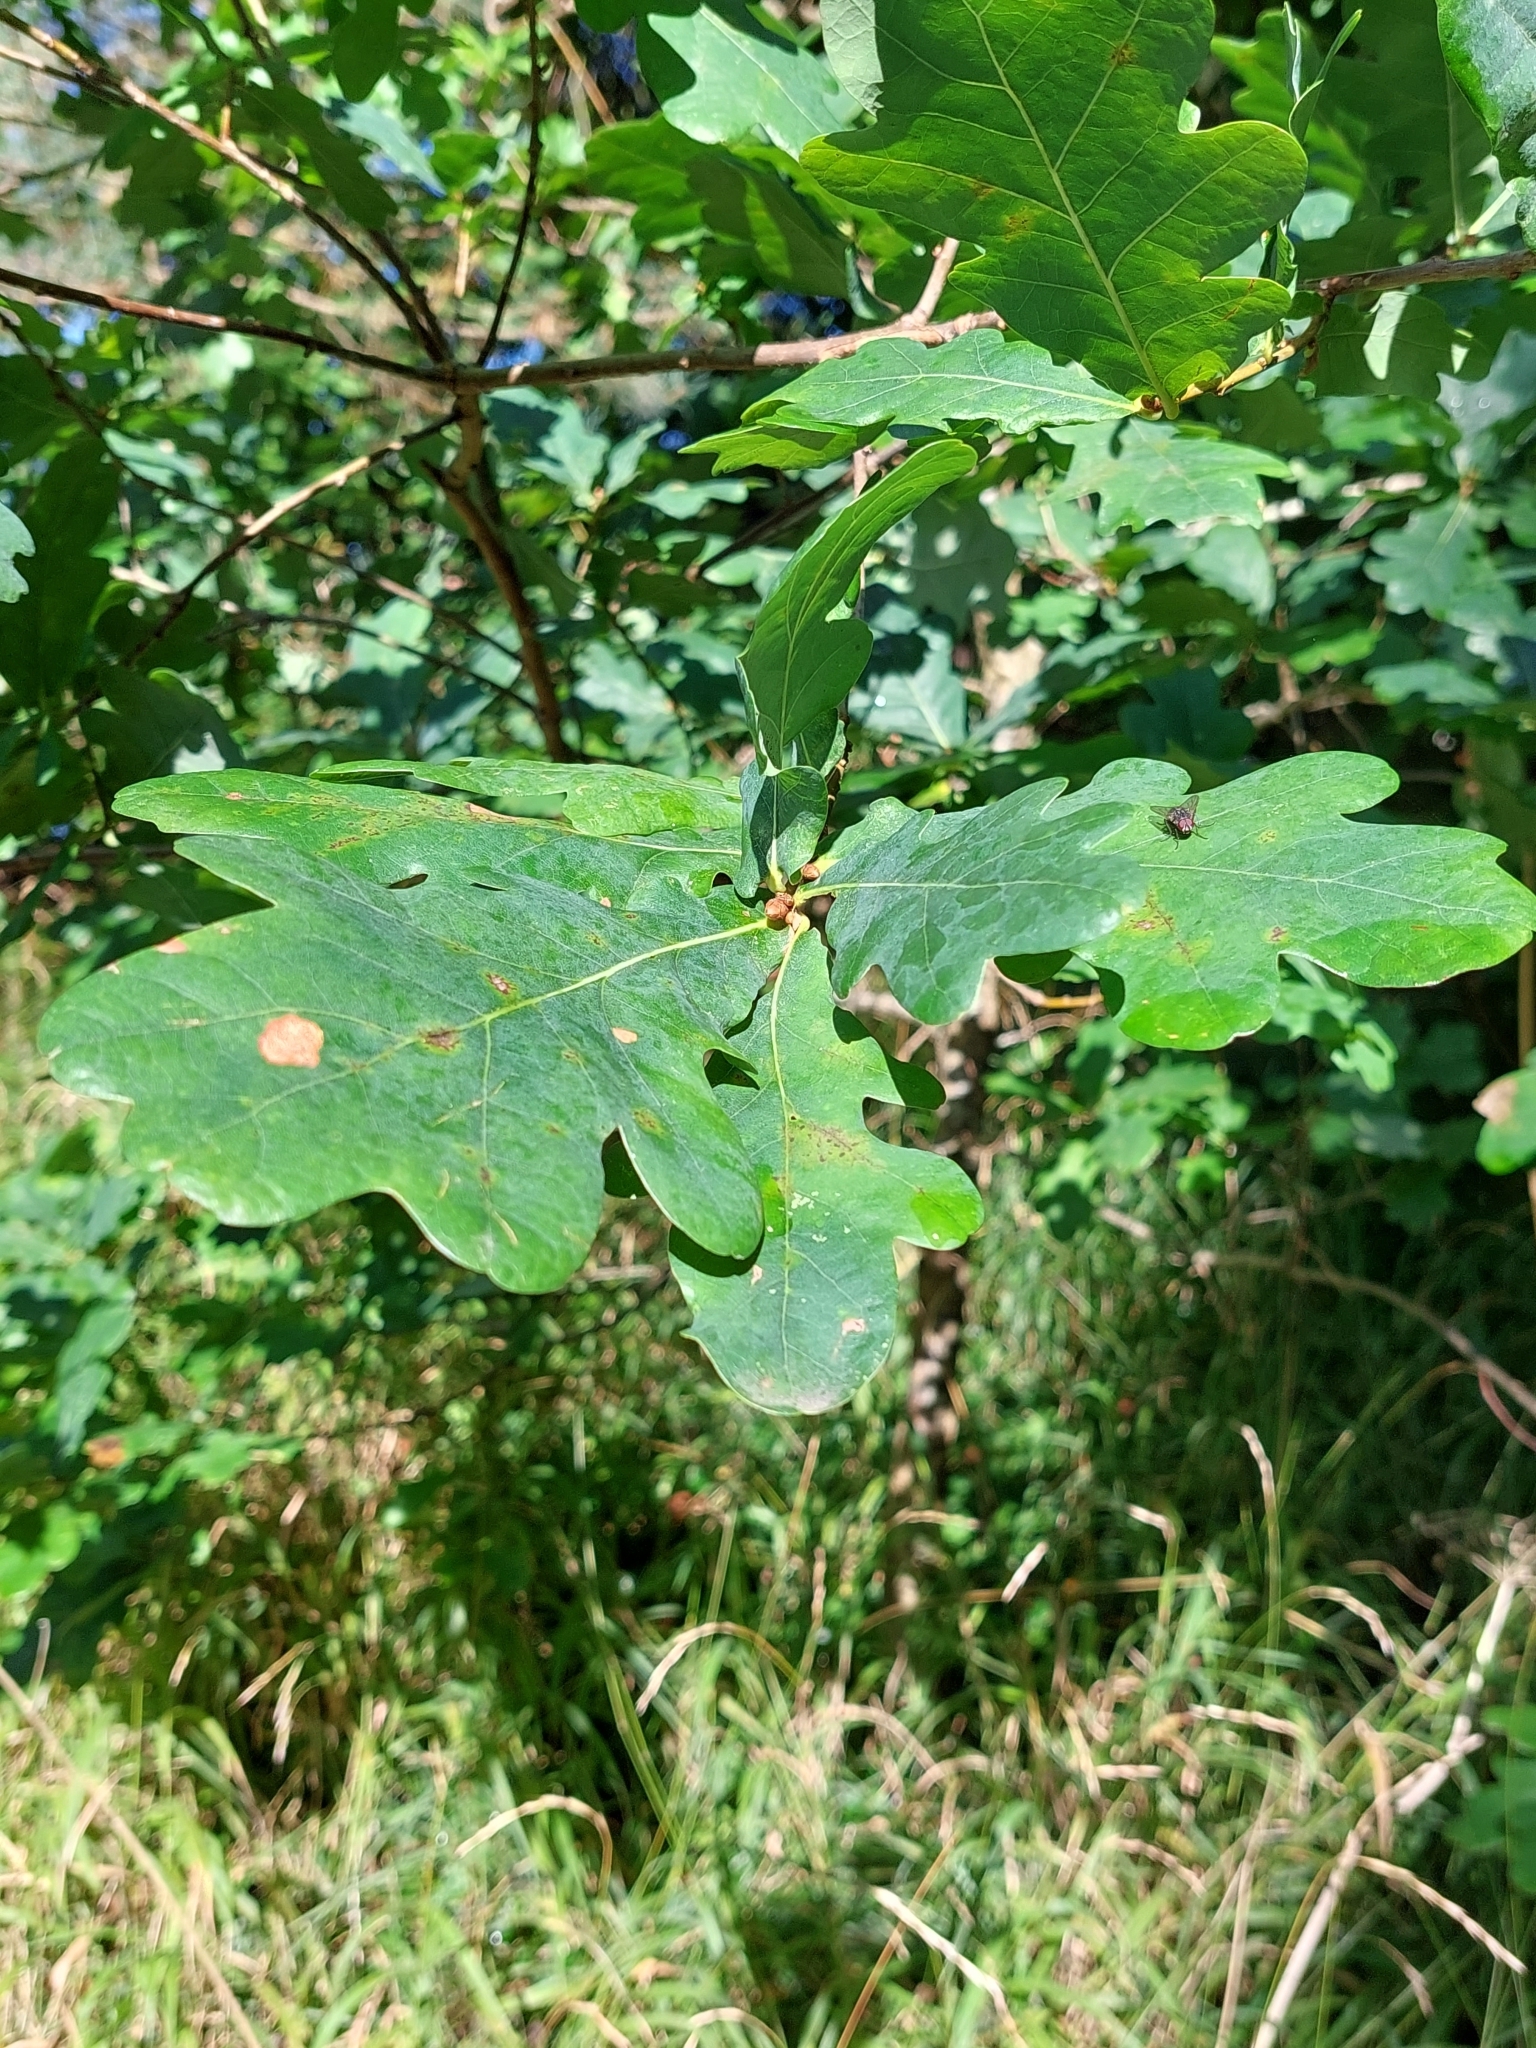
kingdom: Plantae
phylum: Tracheophyta
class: Magnoliopsida
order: Fagales
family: Fagaceae
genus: Quercus
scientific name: Quercus robur
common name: Pedunculate oak
